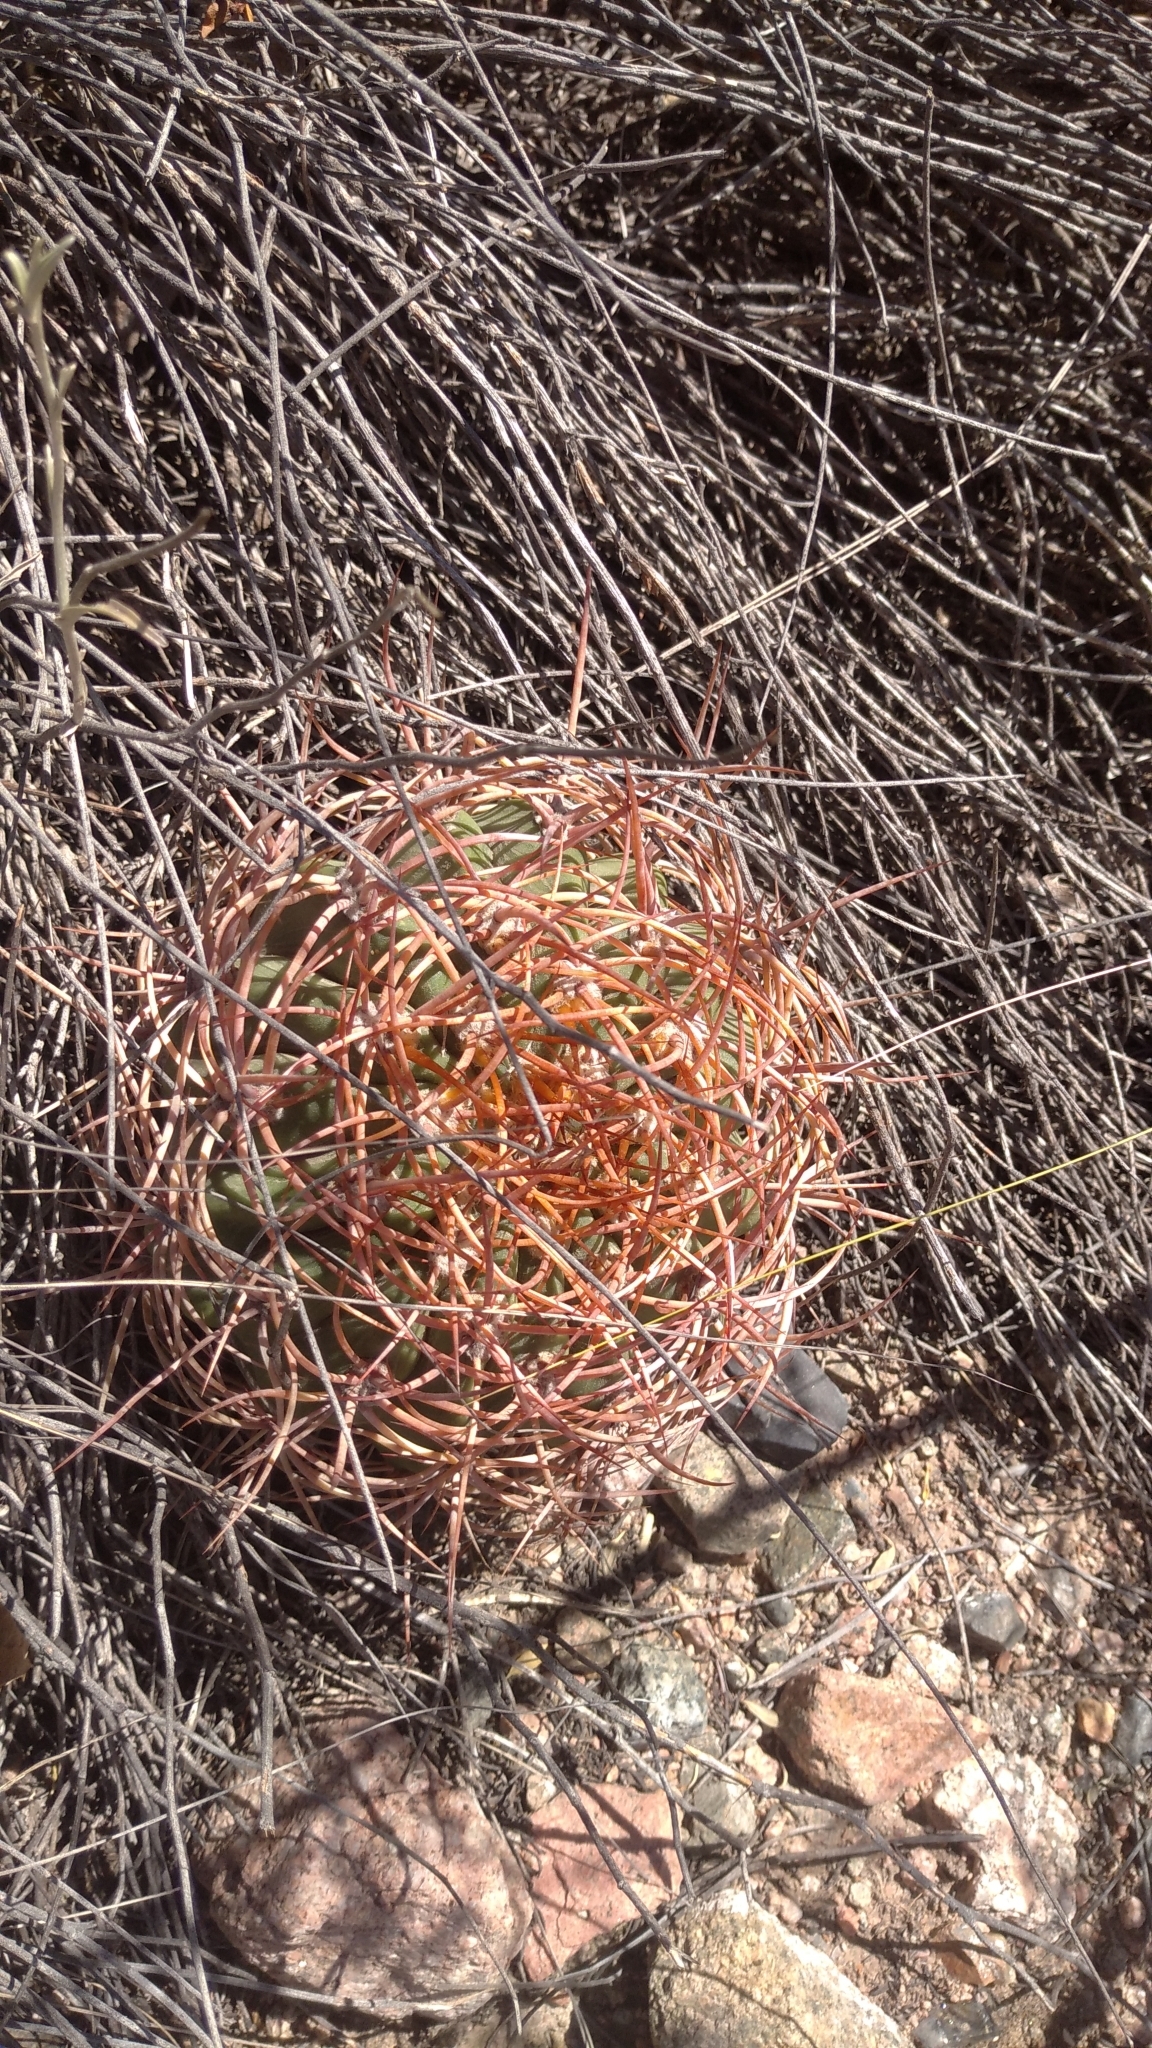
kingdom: Plantae
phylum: Tracheophyta
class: Magnoliopsida
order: Caryophyllales
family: Cactaceae
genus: Denmoza
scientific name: Denmoza rhodacantha
